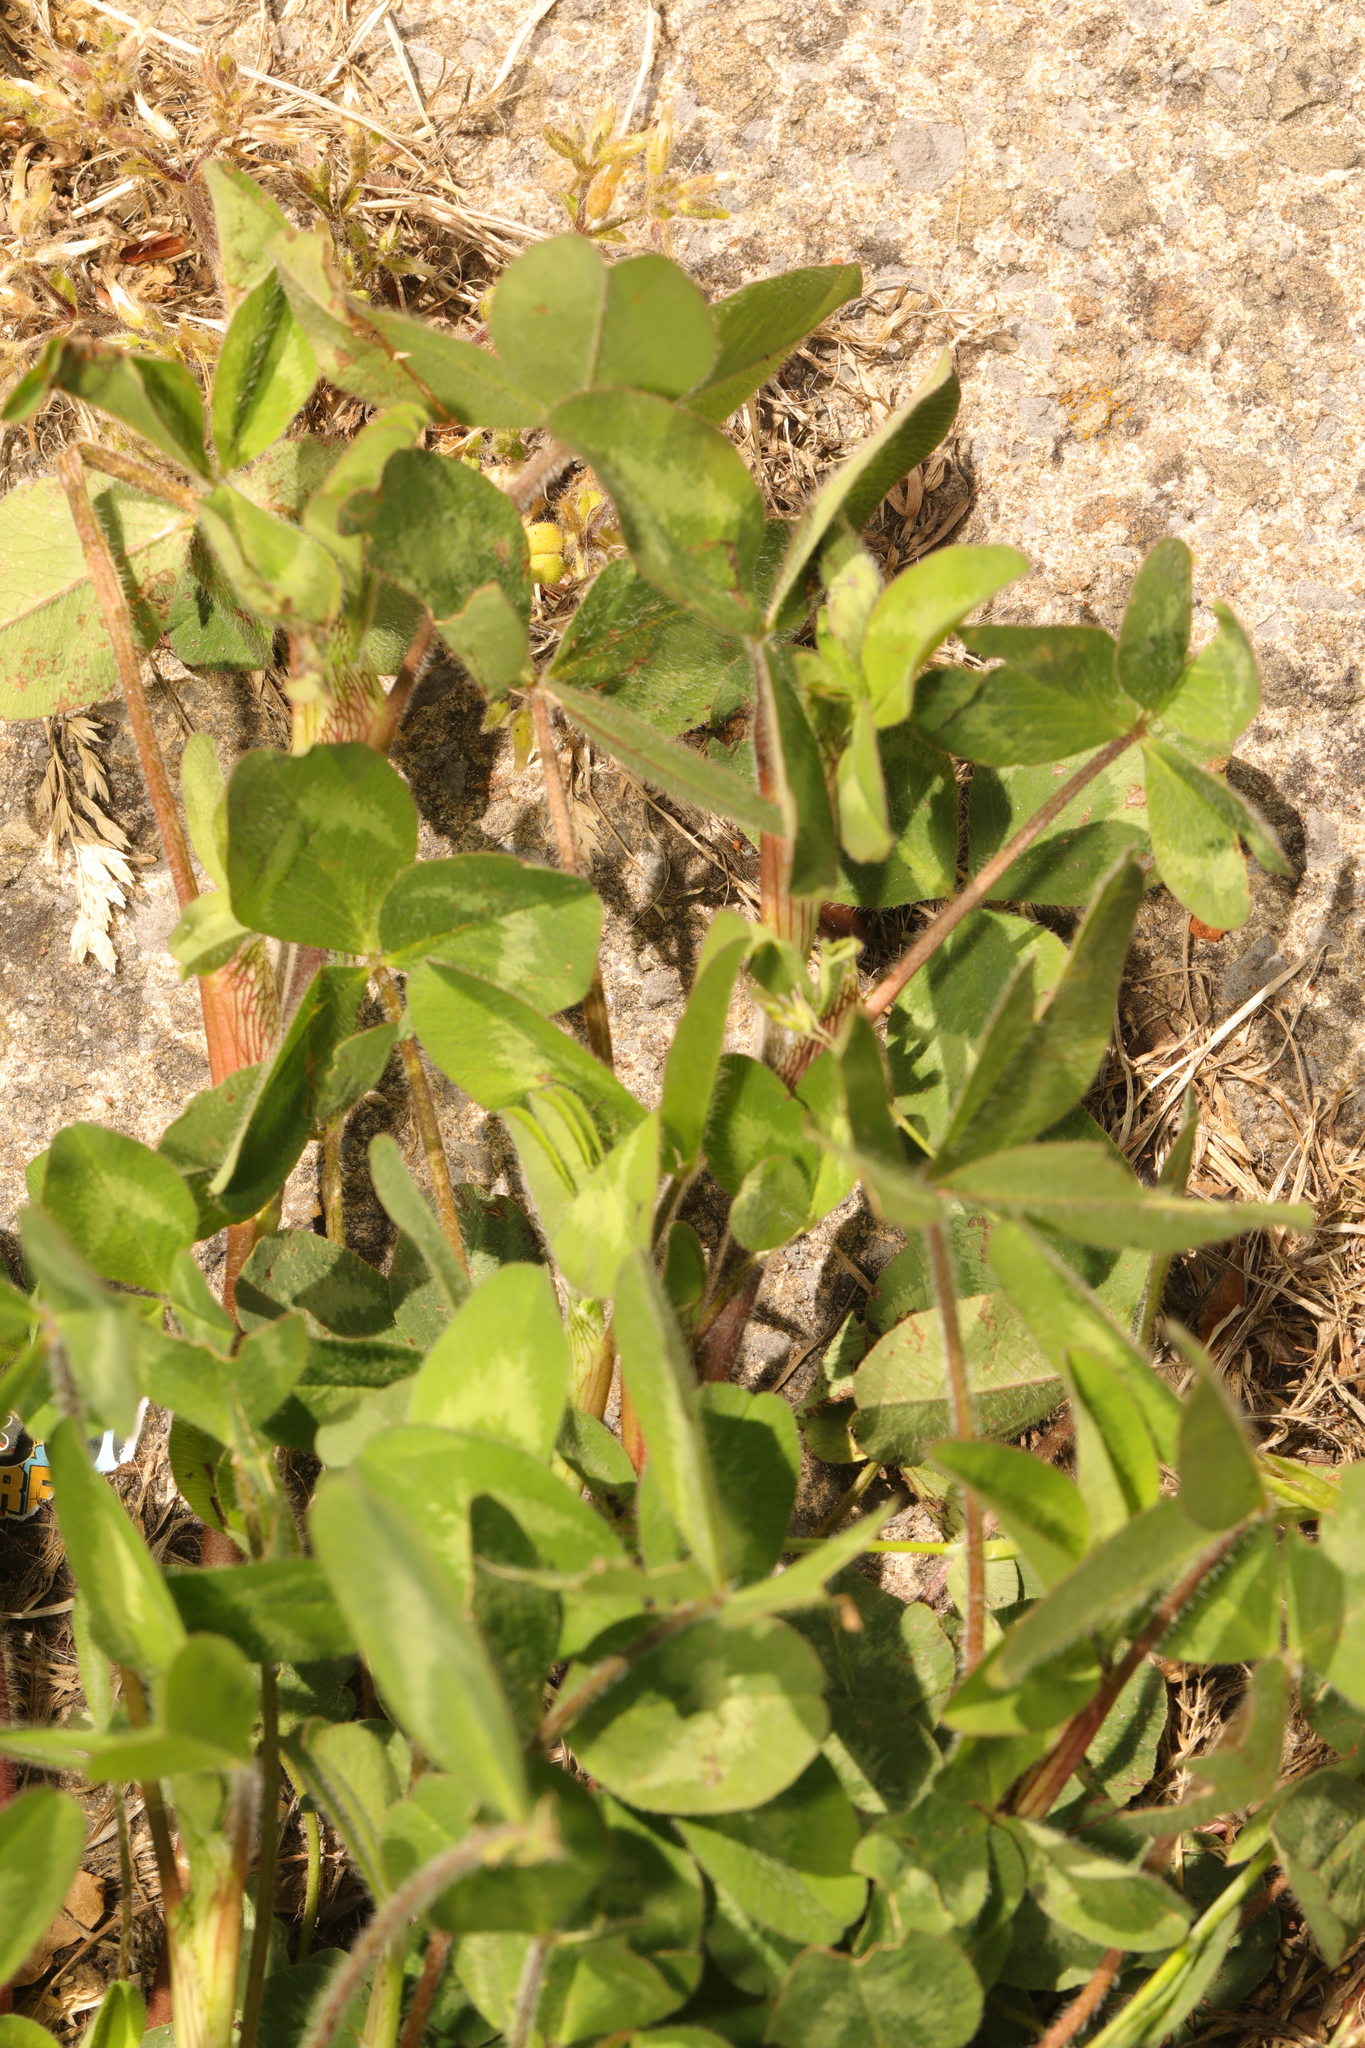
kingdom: Plantae
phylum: Tracheophyta
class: Magnoliopsida
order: Fabales
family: Fabaceae
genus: Trifolium
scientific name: Trifolium pratense
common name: Red clover
